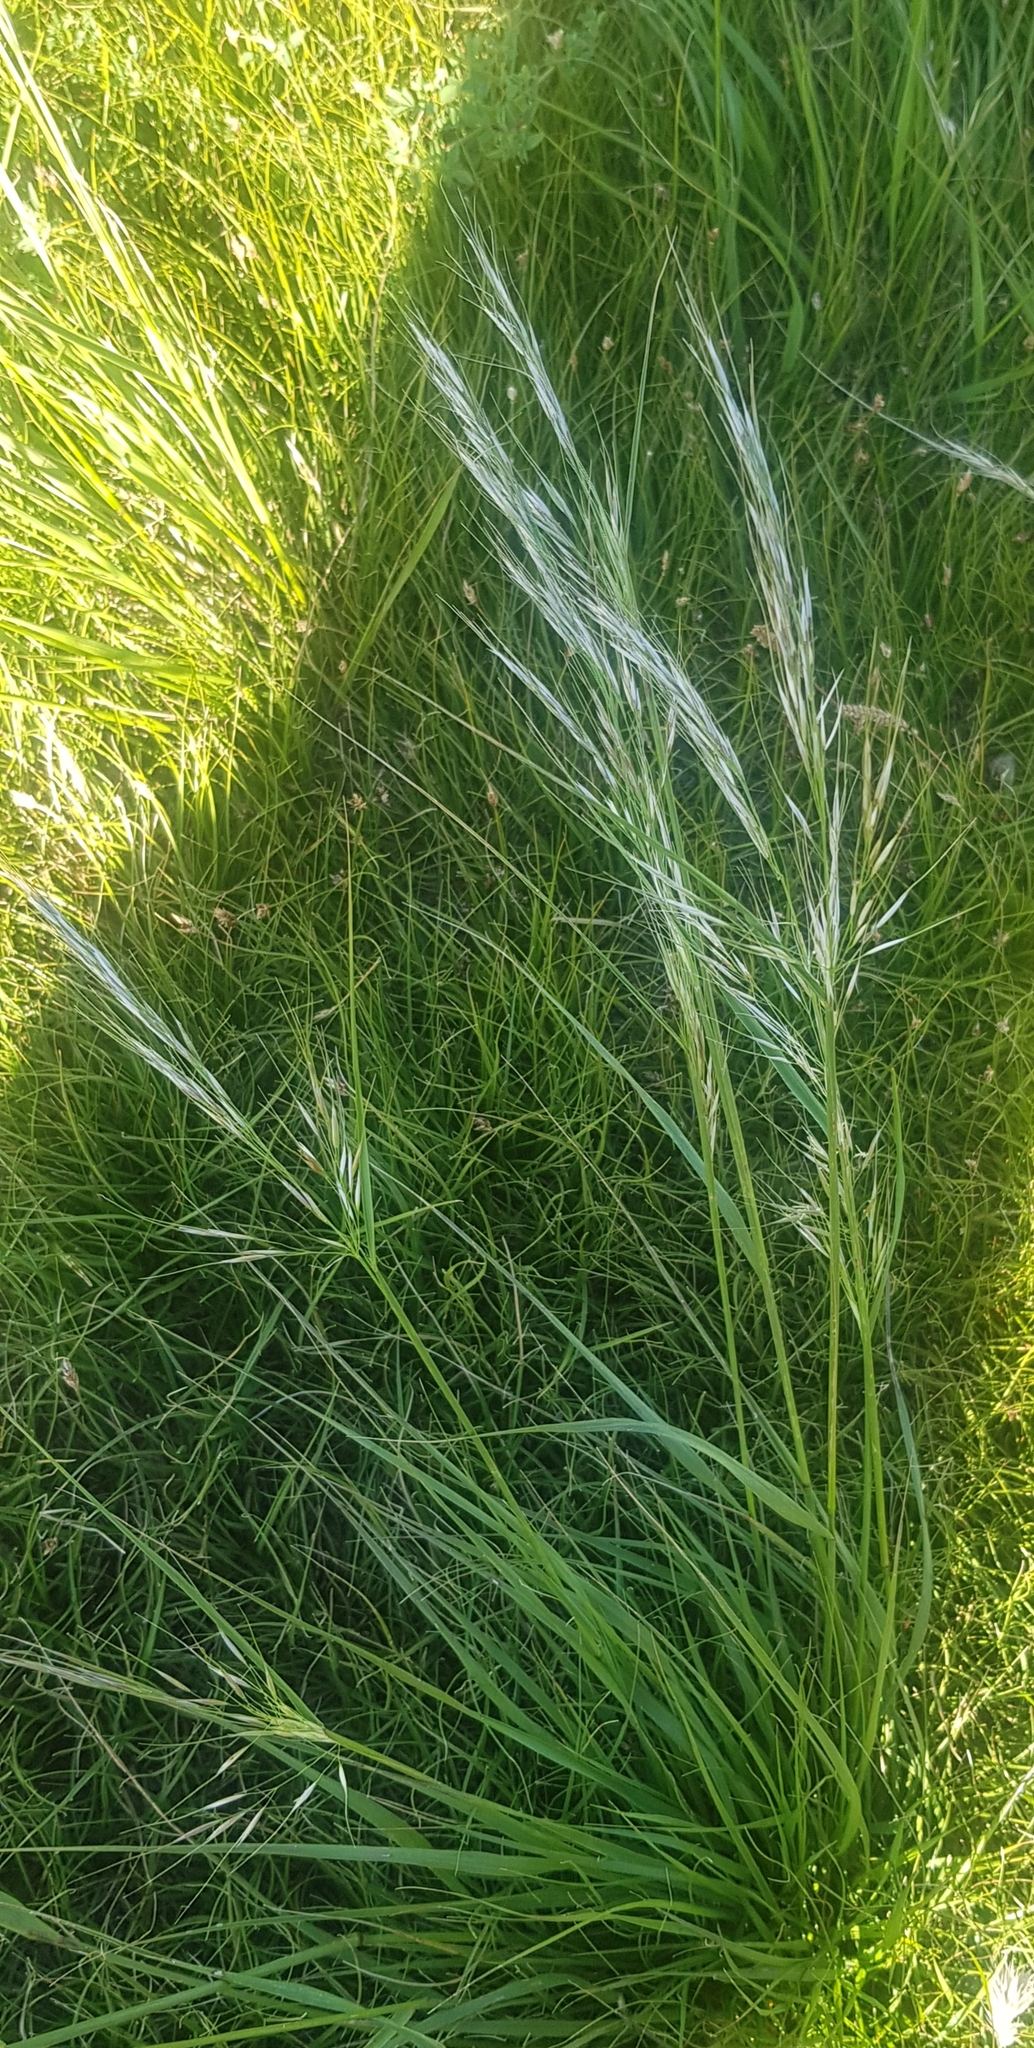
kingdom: Plantae
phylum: Tracheophyta
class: Liliopsida
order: Poales
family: Poaceae
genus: Achnatherum
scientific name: Achnatherum sibiricum
